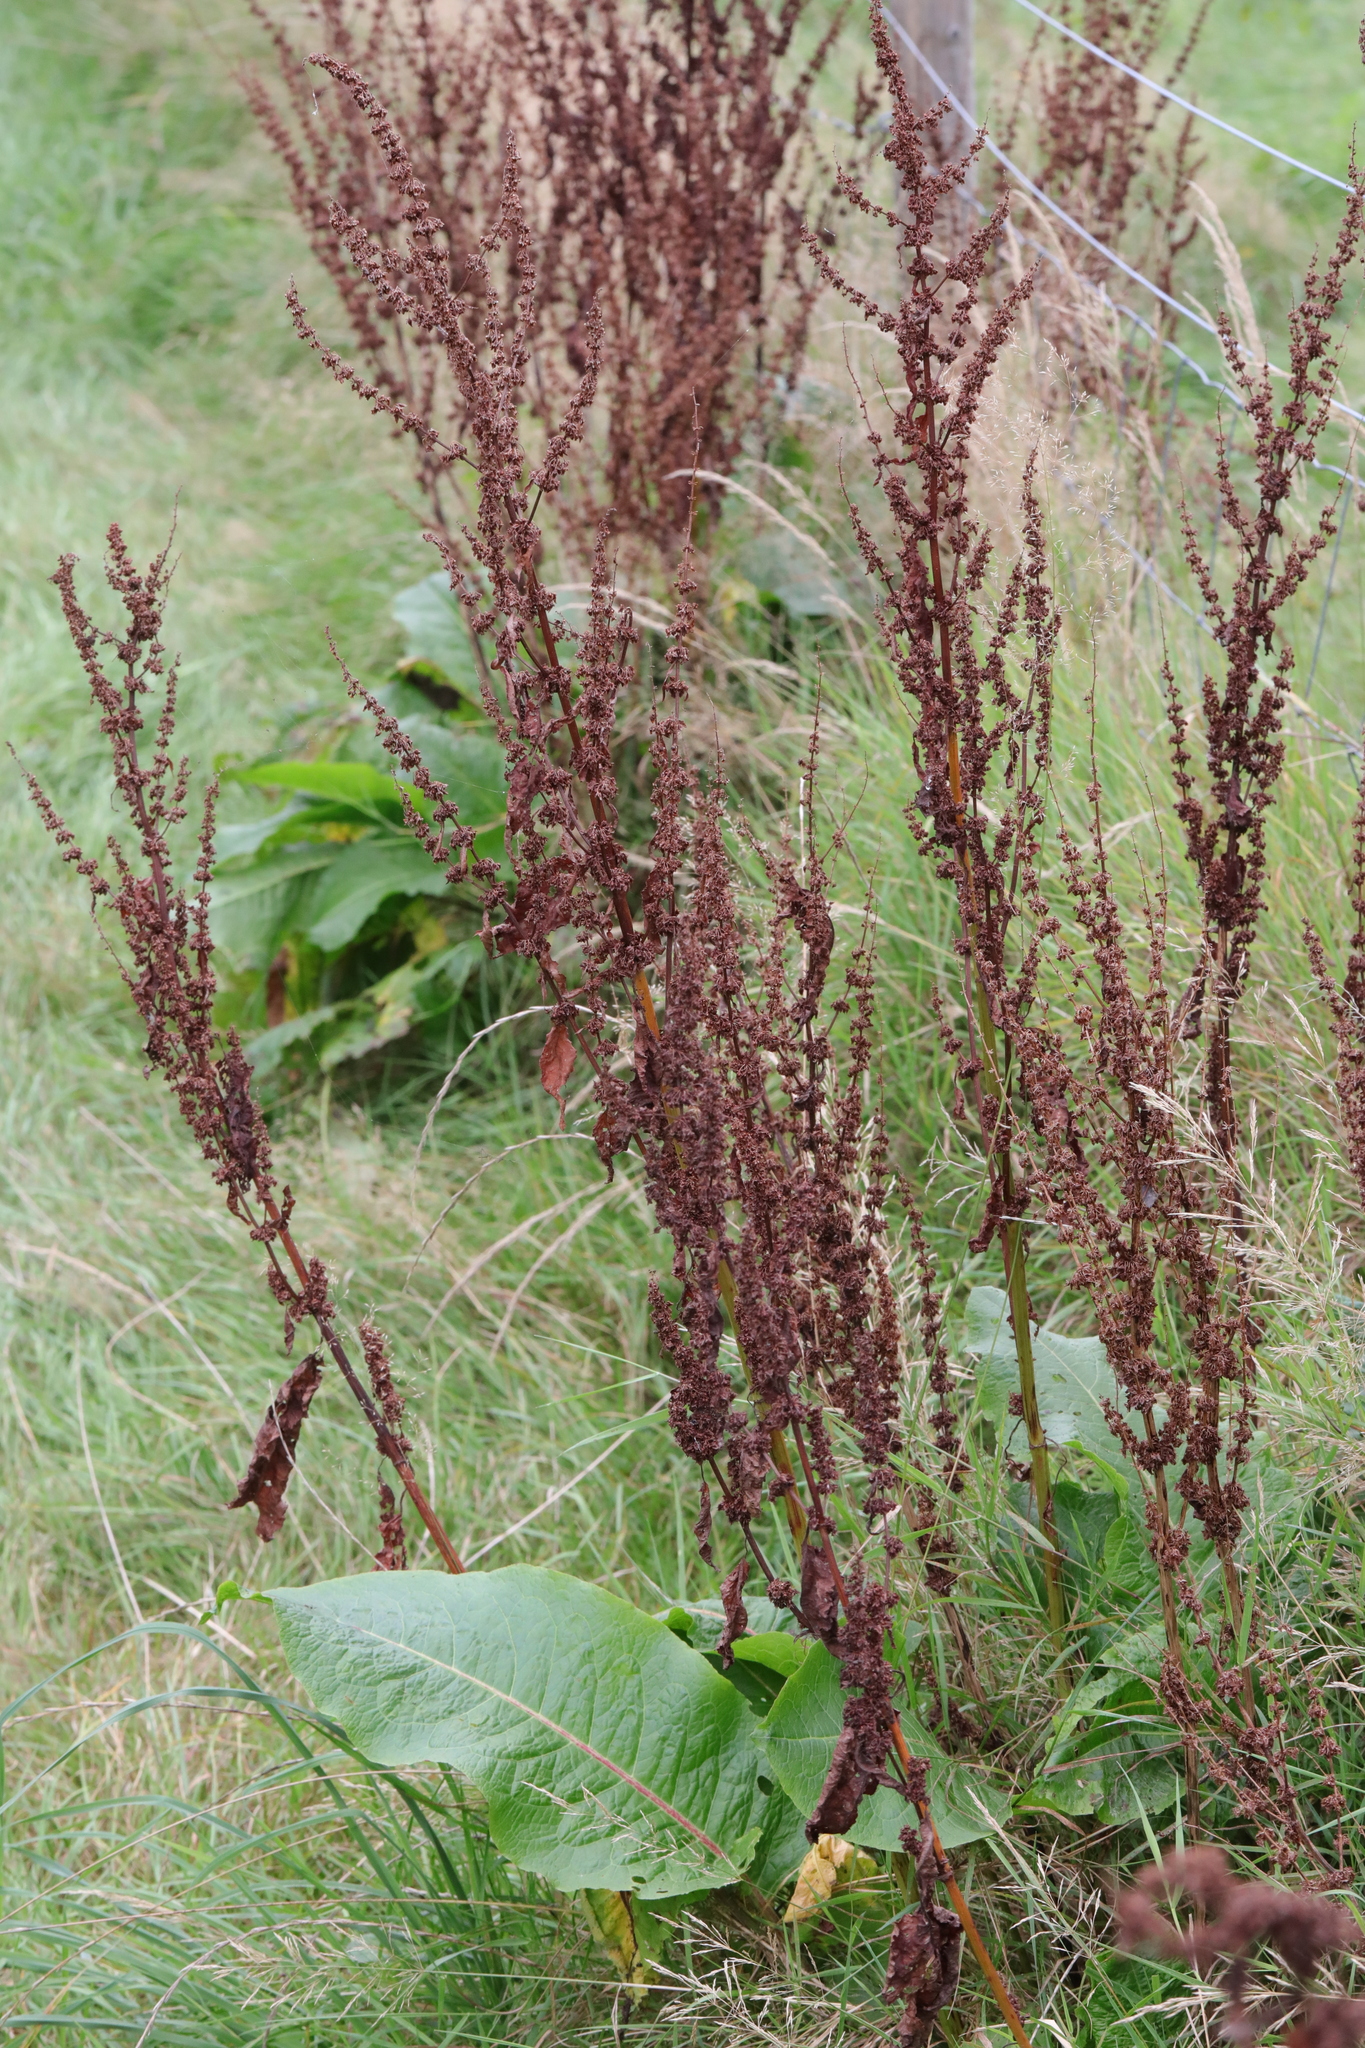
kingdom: Plantae
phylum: Tracheophyta
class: Magnoliopsida
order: Caryophyllales
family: Polygonaceae
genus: Rumex
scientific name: Rumex obtusifolius
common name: Bitter dock
